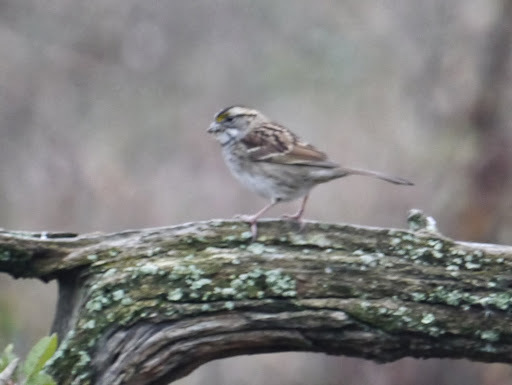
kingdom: Animalia
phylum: Chordata
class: Aves
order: Passeriformes
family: Passerellidae
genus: Zonotrichia
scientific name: Zonotrichia albicollis
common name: White-throated sparrow
